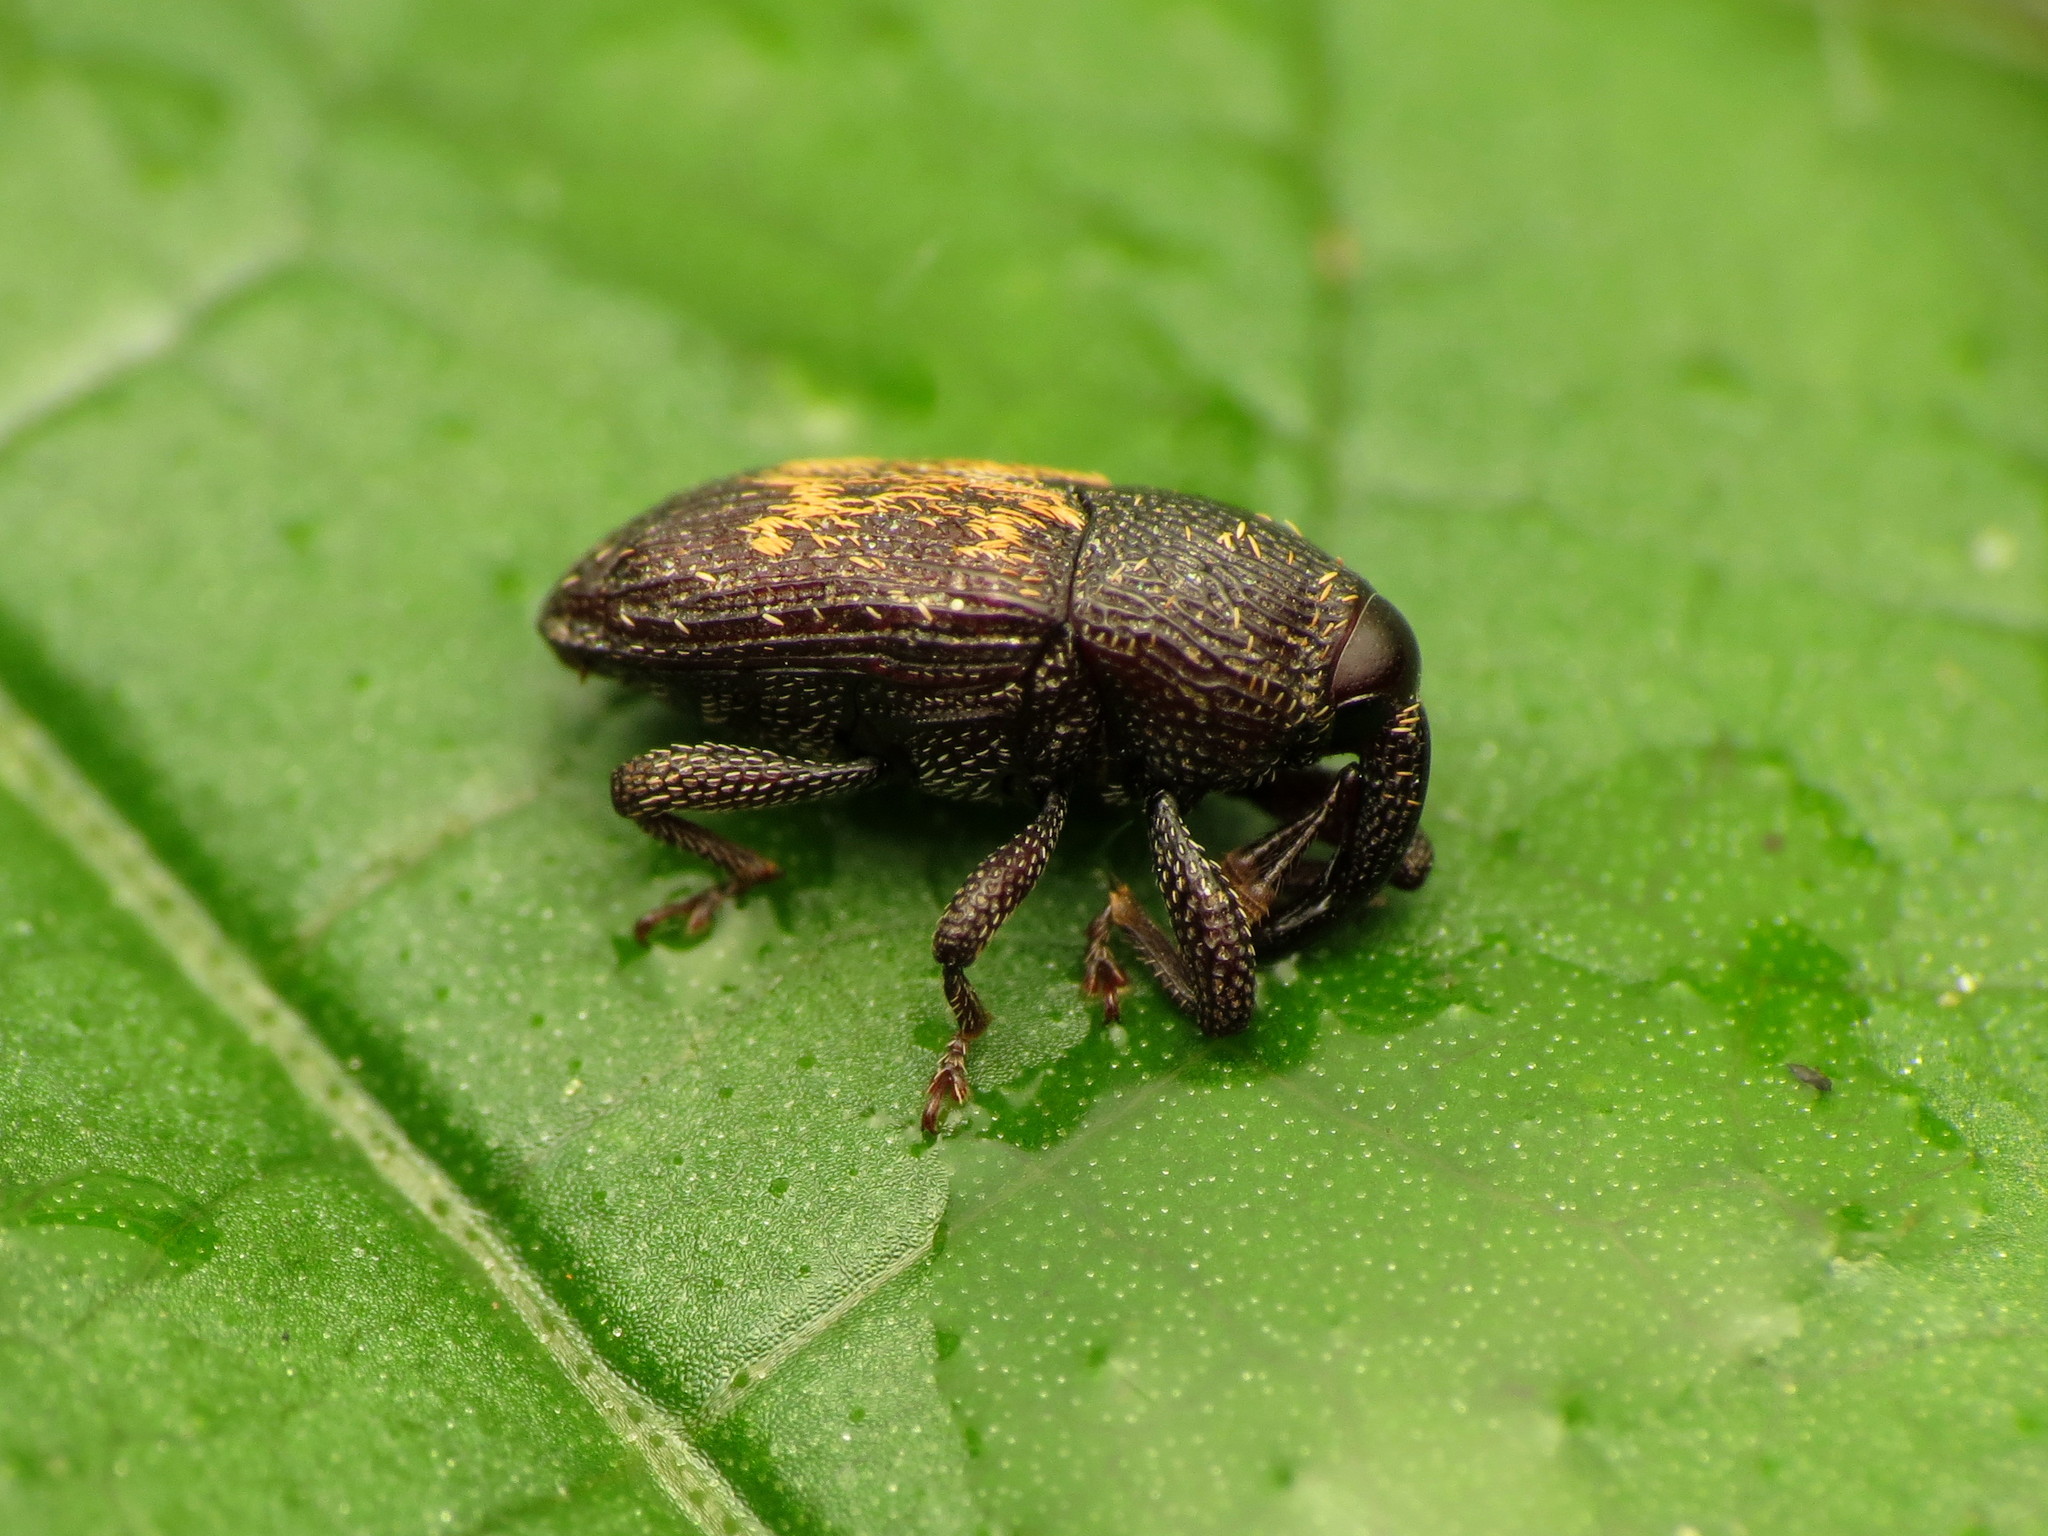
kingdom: Animalia
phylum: Arthropoda
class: Insecta
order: Coleoptera
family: Curculionidae
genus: Glyptobaris
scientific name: Glyptobaris lecontei
